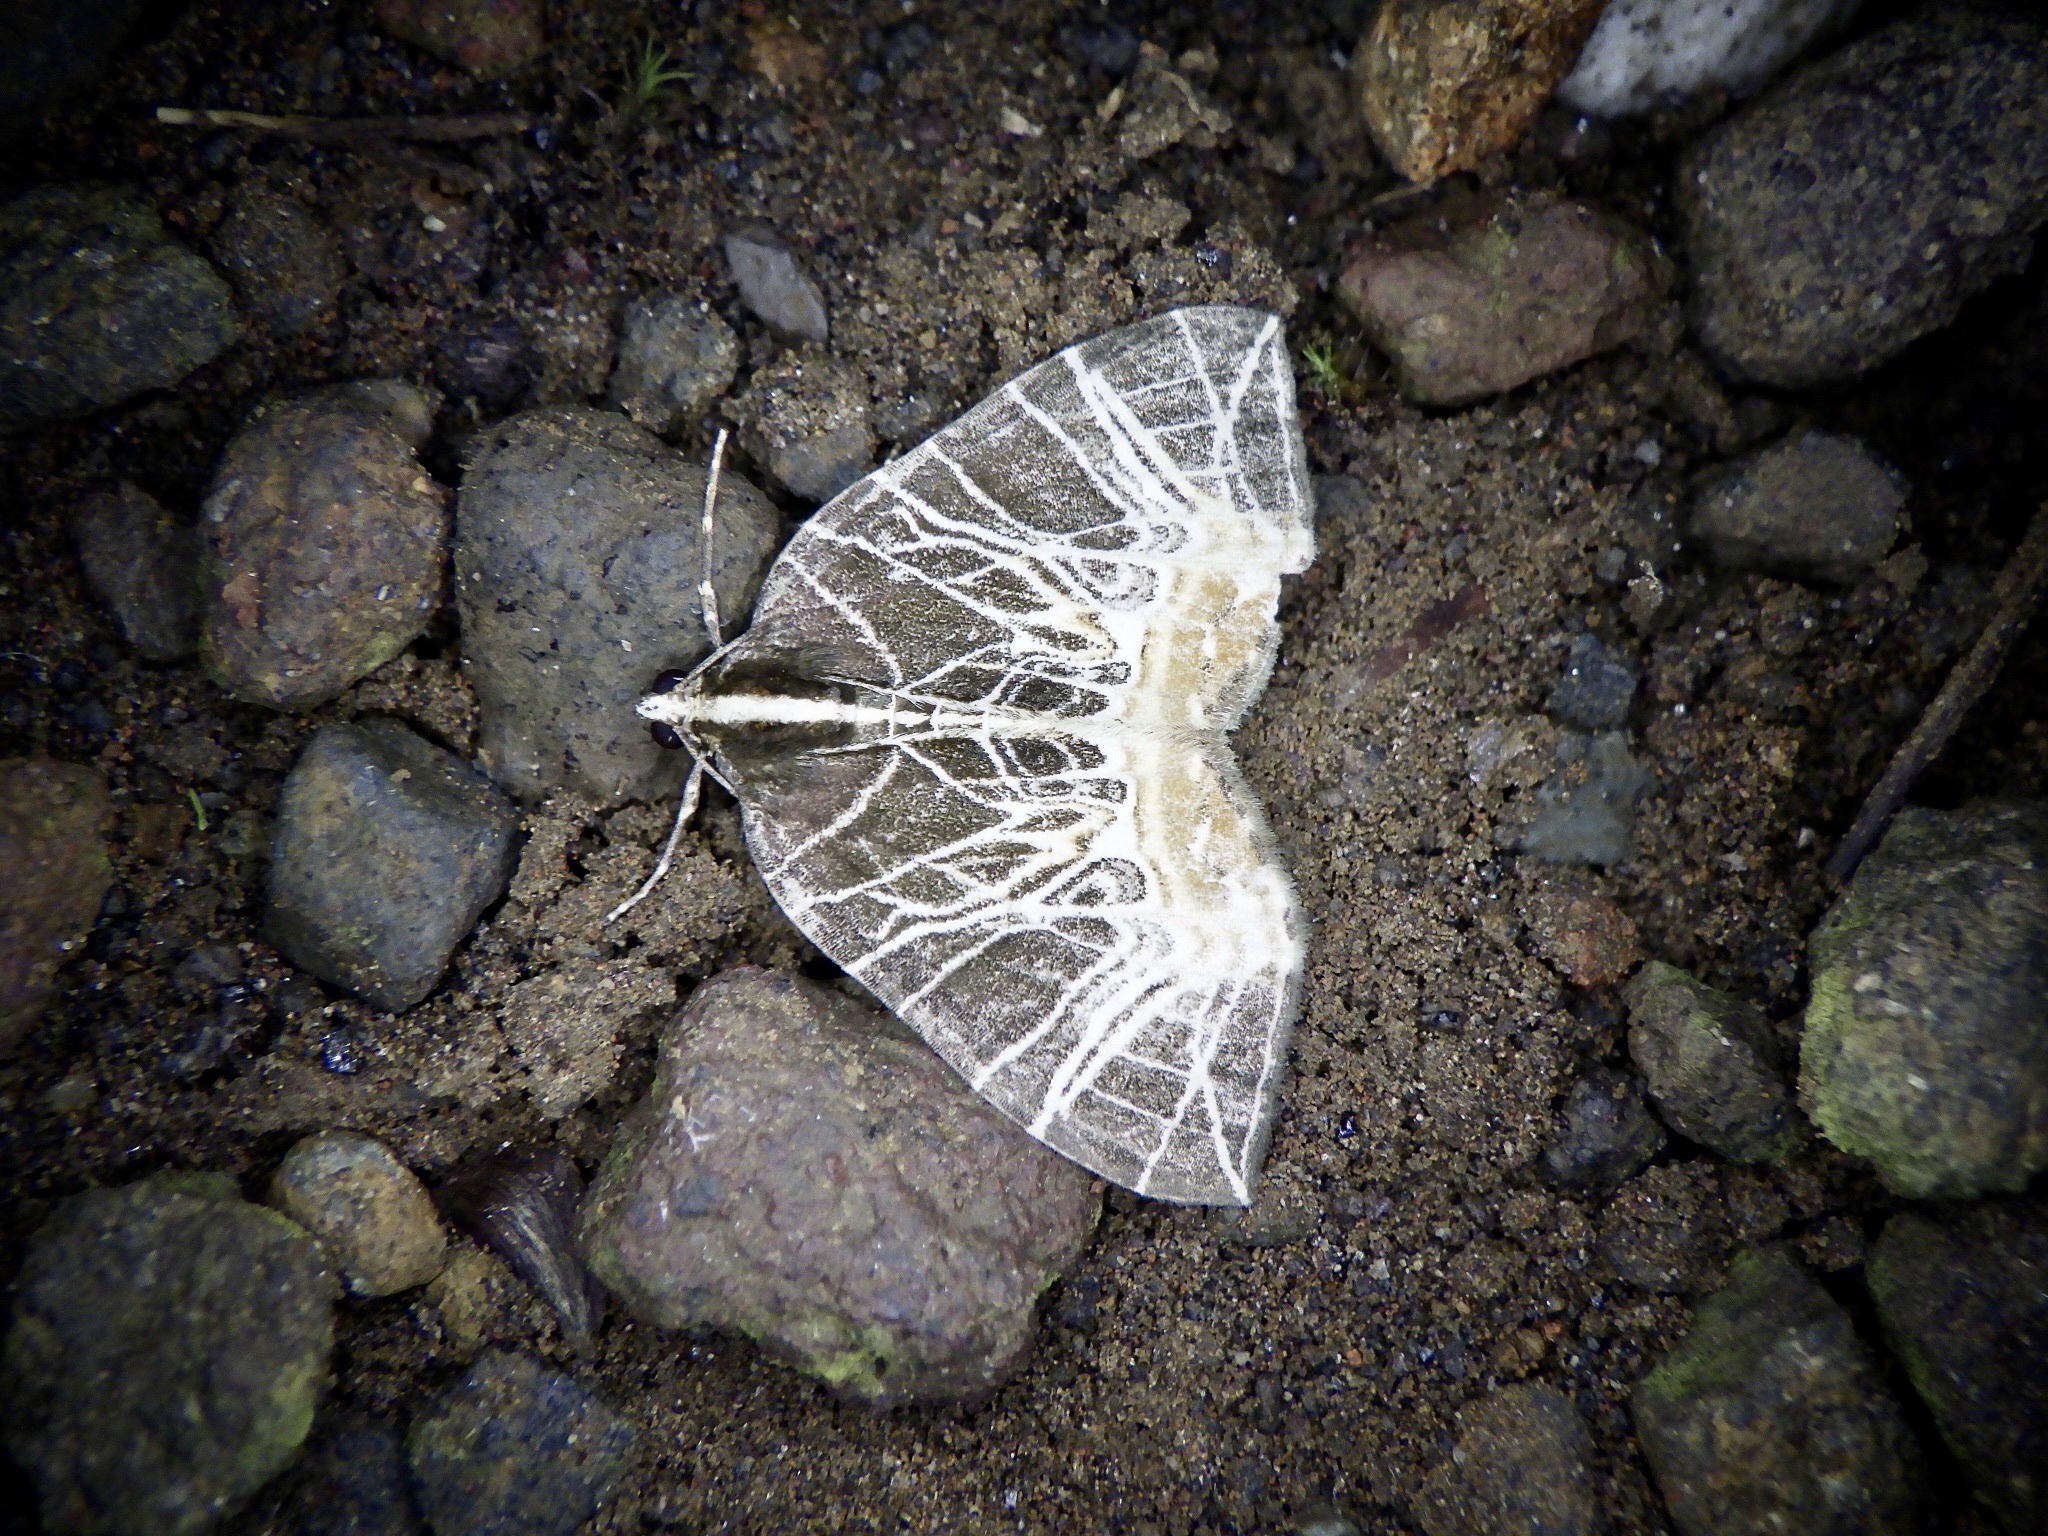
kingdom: Animalia
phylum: Arthropoda
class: Insecta
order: Lepidoptera
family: Geometridae
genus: Evecliptopera
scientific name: Evecliptopera illitata
